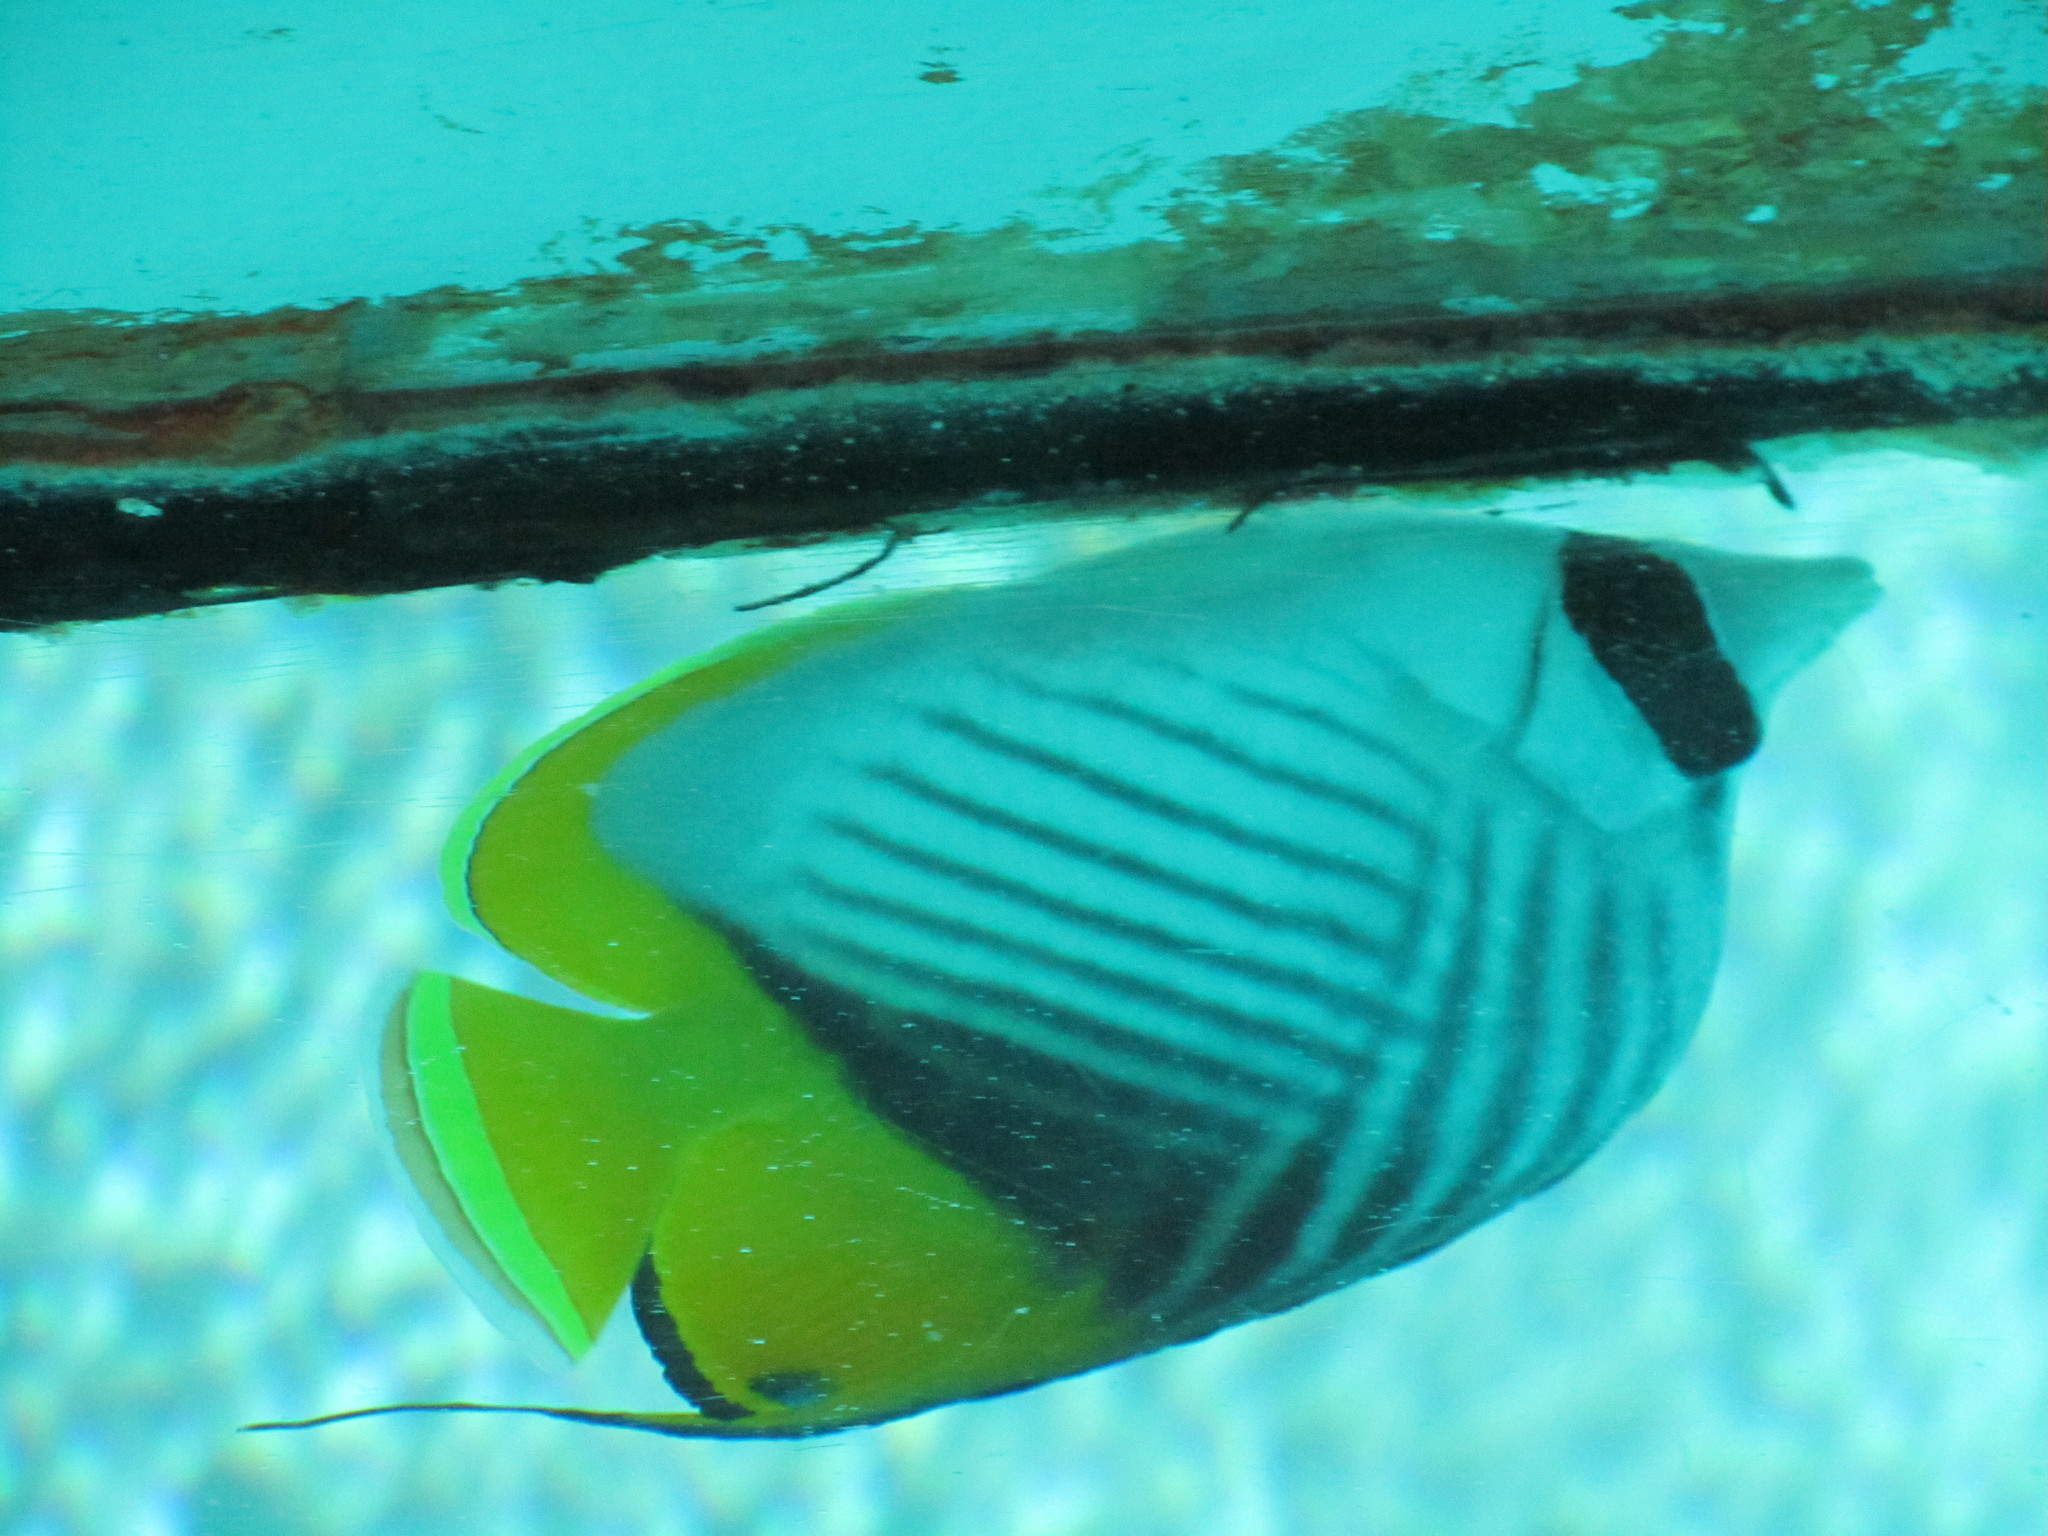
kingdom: Animalia
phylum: Chordata
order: Perciformes
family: Chaetodontidae
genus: Chaetodon
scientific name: Chaetodon auriga
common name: Threadfin butterflyfish
